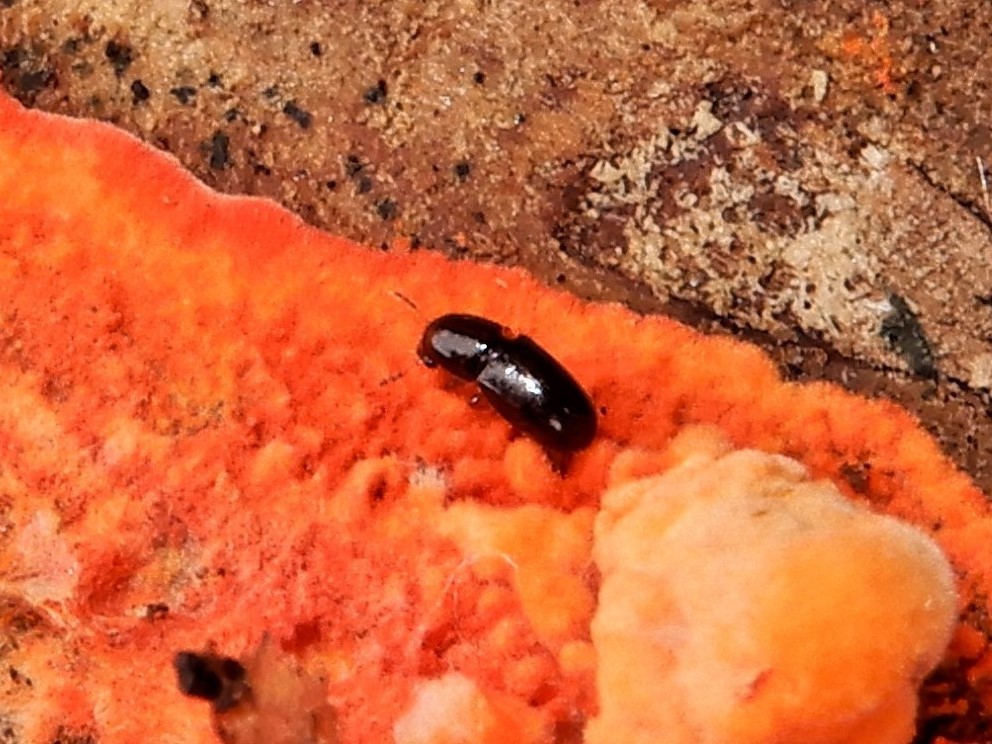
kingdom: Animalia
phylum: Arthropoda
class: Insecta
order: Coleoptera
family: Ciidae
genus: Octotemnus
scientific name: Octotemnus
